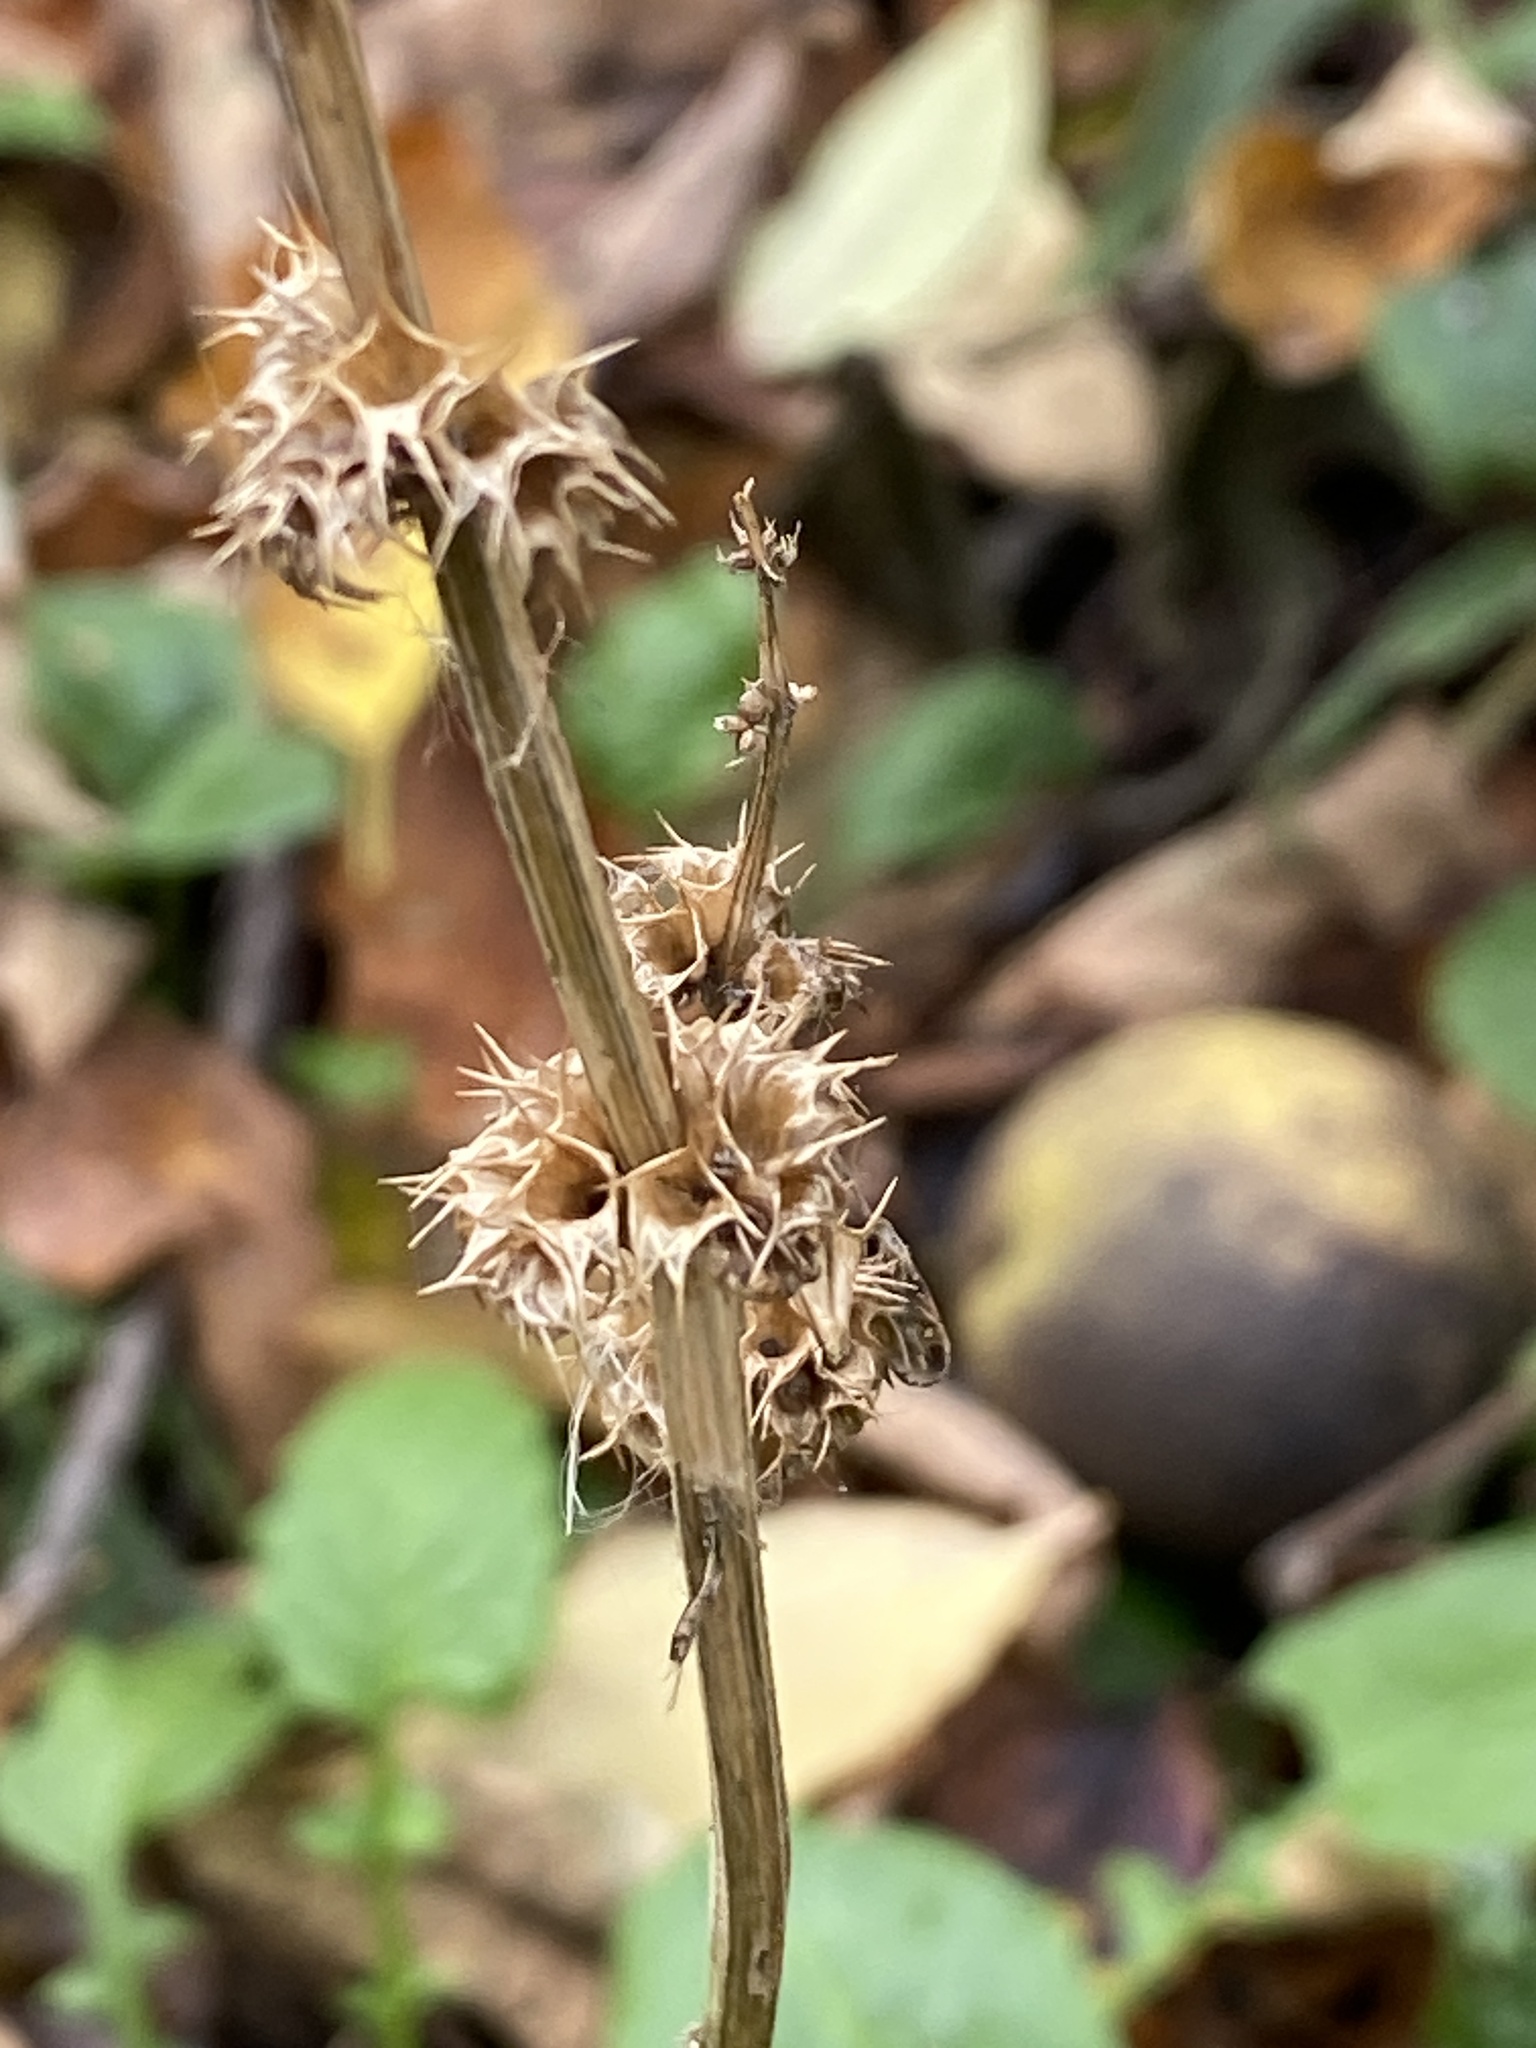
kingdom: Plantae
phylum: Tracheophyta
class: Magnoliopsida
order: Lamiales
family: Lamiaceae
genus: Leonurus
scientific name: Leonurus cardiaca
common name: Motherwort
